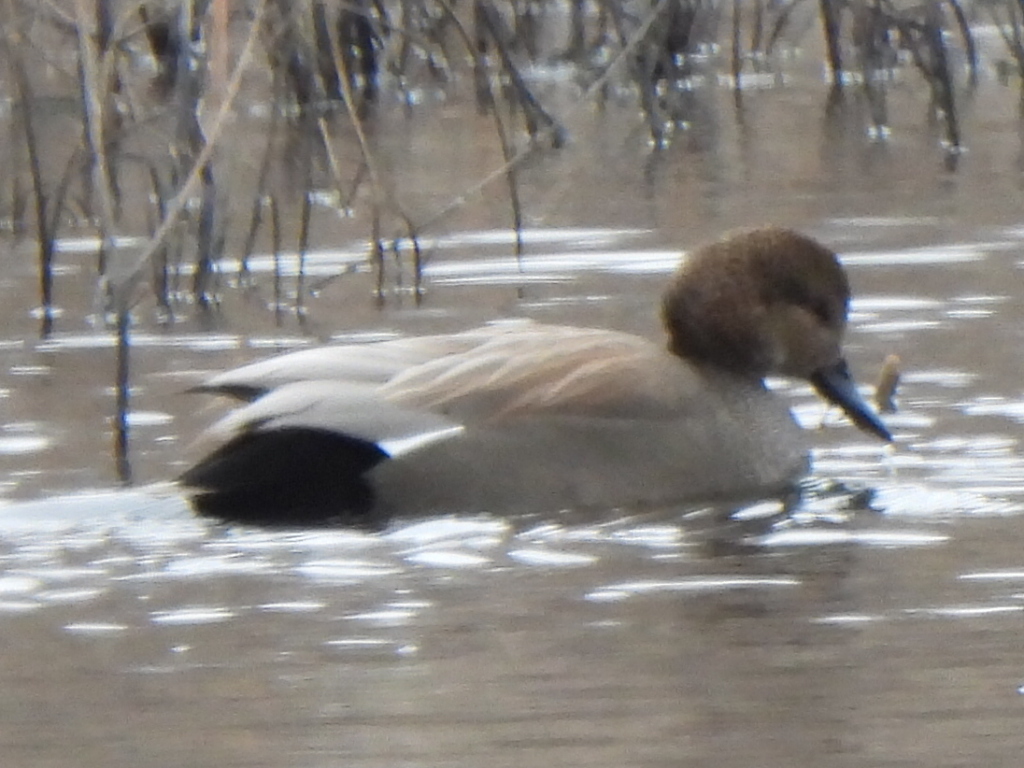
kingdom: Animalia
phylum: Chordata
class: Aves
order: Anseriformes
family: Anatidae
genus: Mareca
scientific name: Mareca strepera
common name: Gadwall
